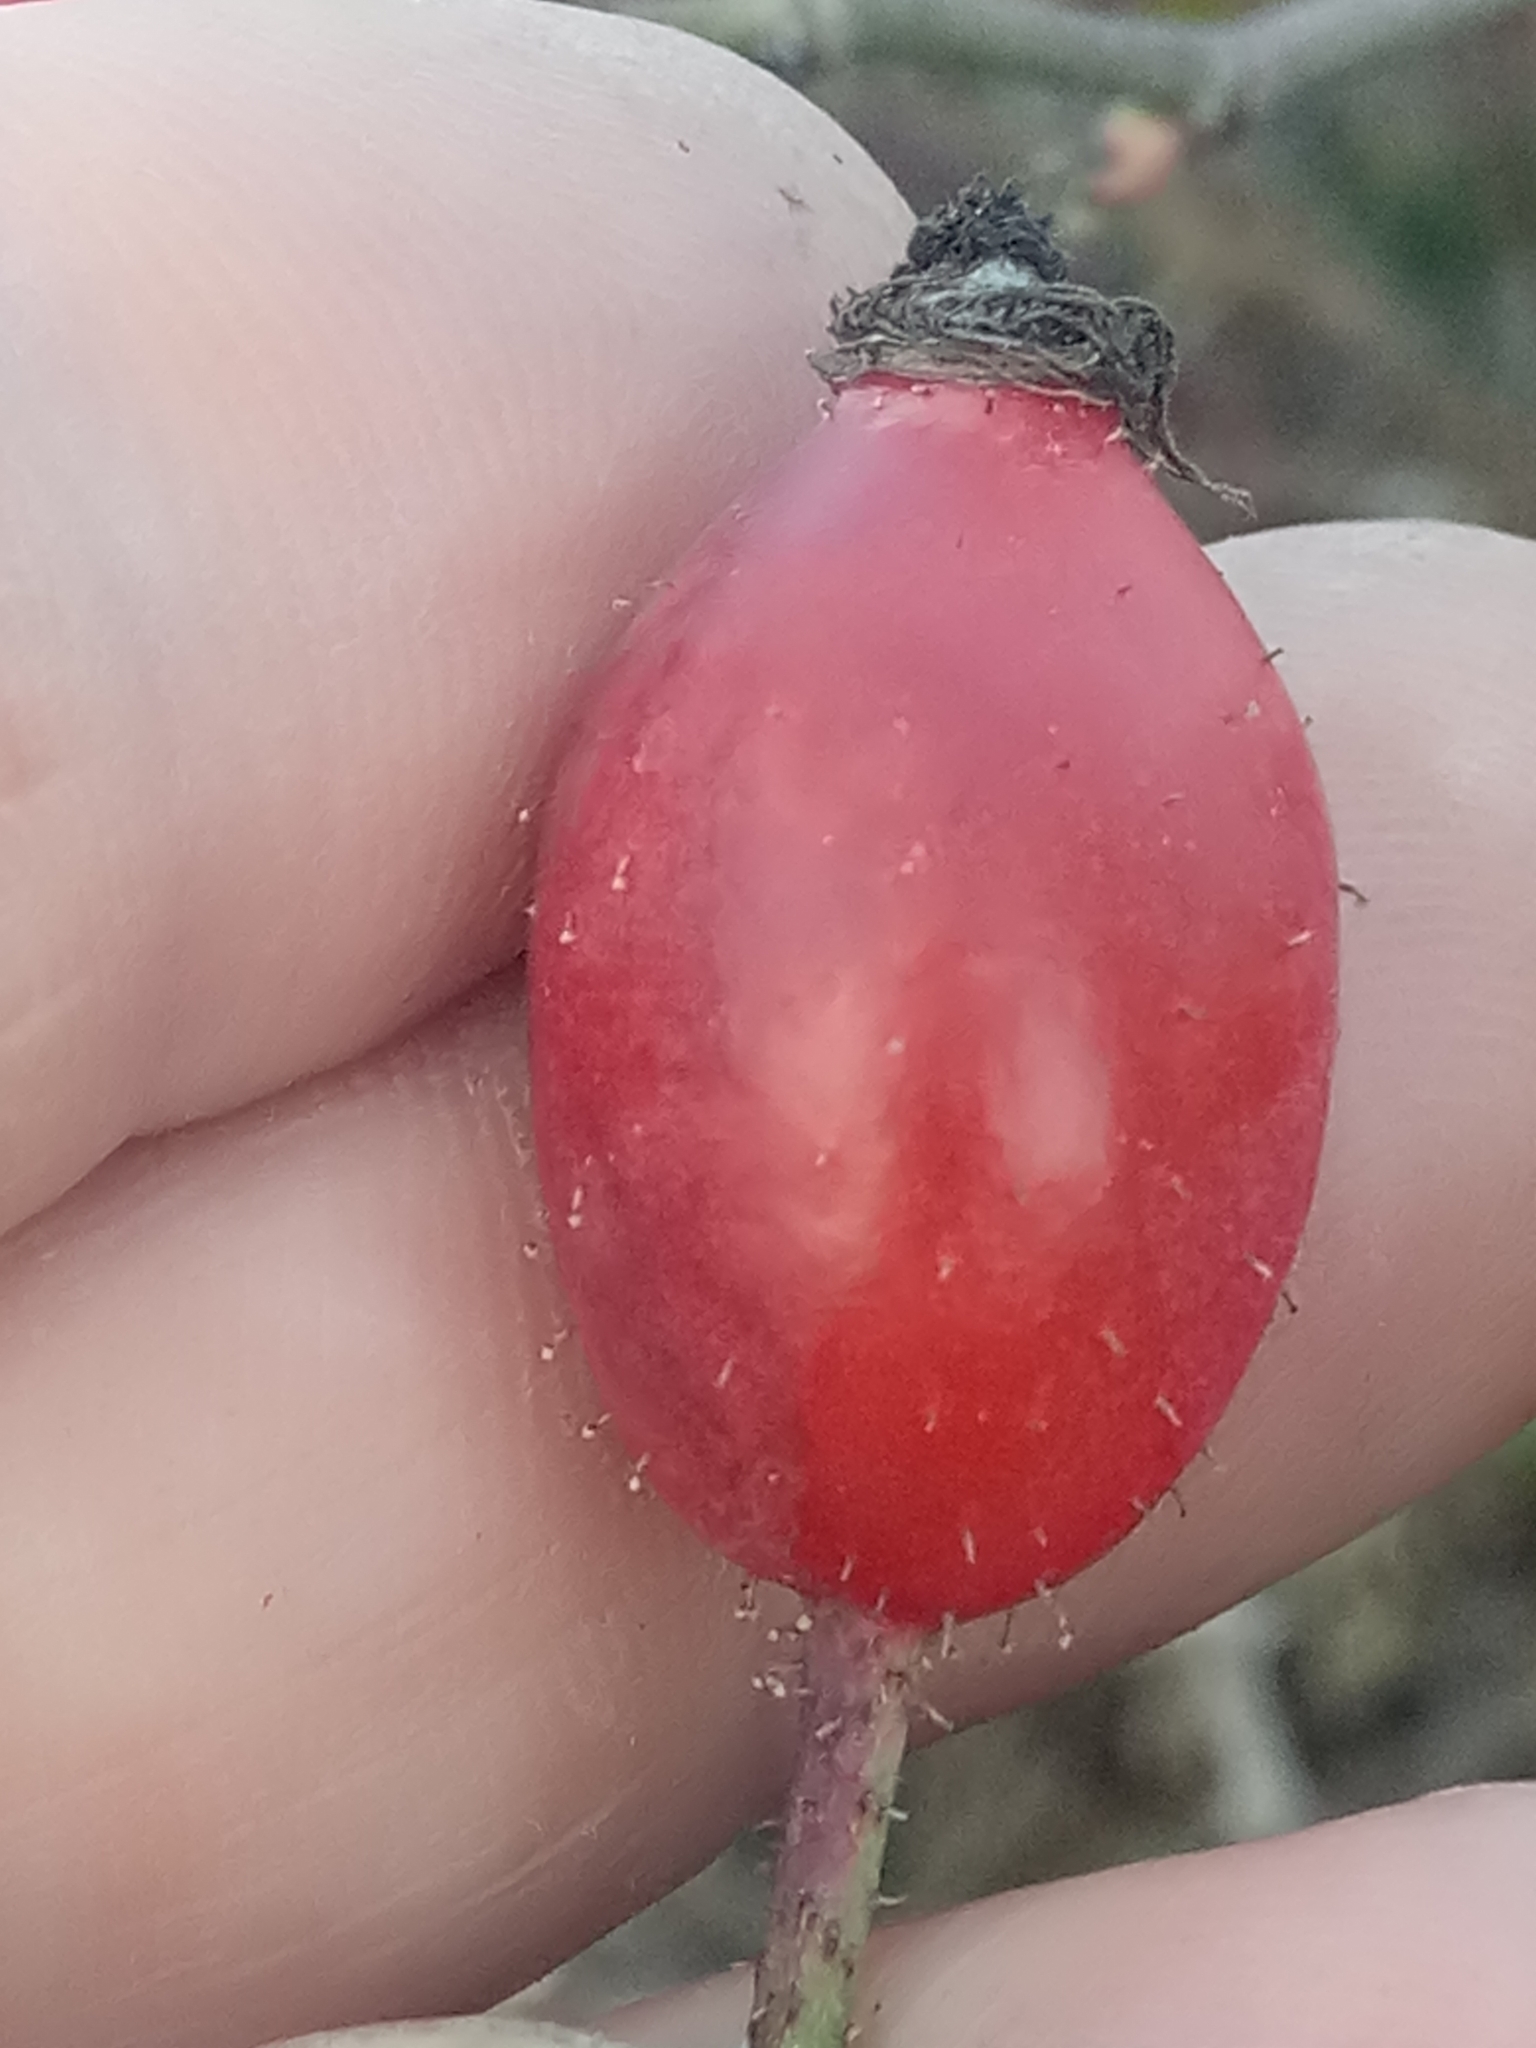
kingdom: Plantae
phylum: Tracheophyta
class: Magnoliopsida
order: Rosales
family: Rosaceae
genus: Rosa
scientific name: Rosa dumalis
